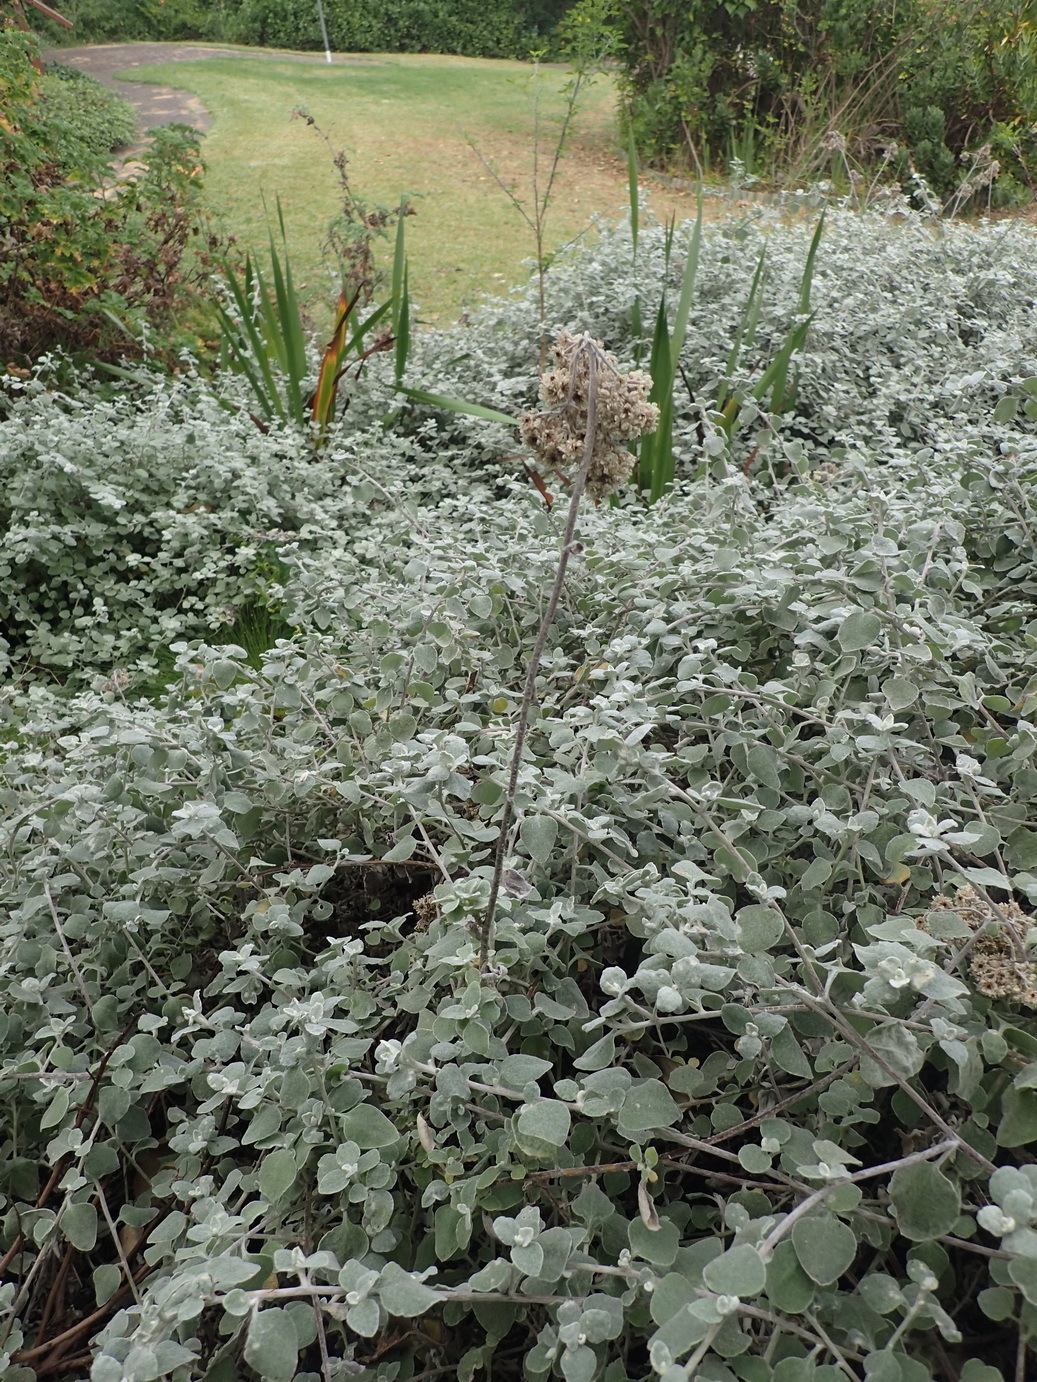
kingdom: Plantae
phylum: Tracheophyta
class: Magnoliopsida
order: Asterales
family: Asteraceae
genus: Helichrysum
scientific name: Helichrysum petiolare
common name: Licorice-plant
